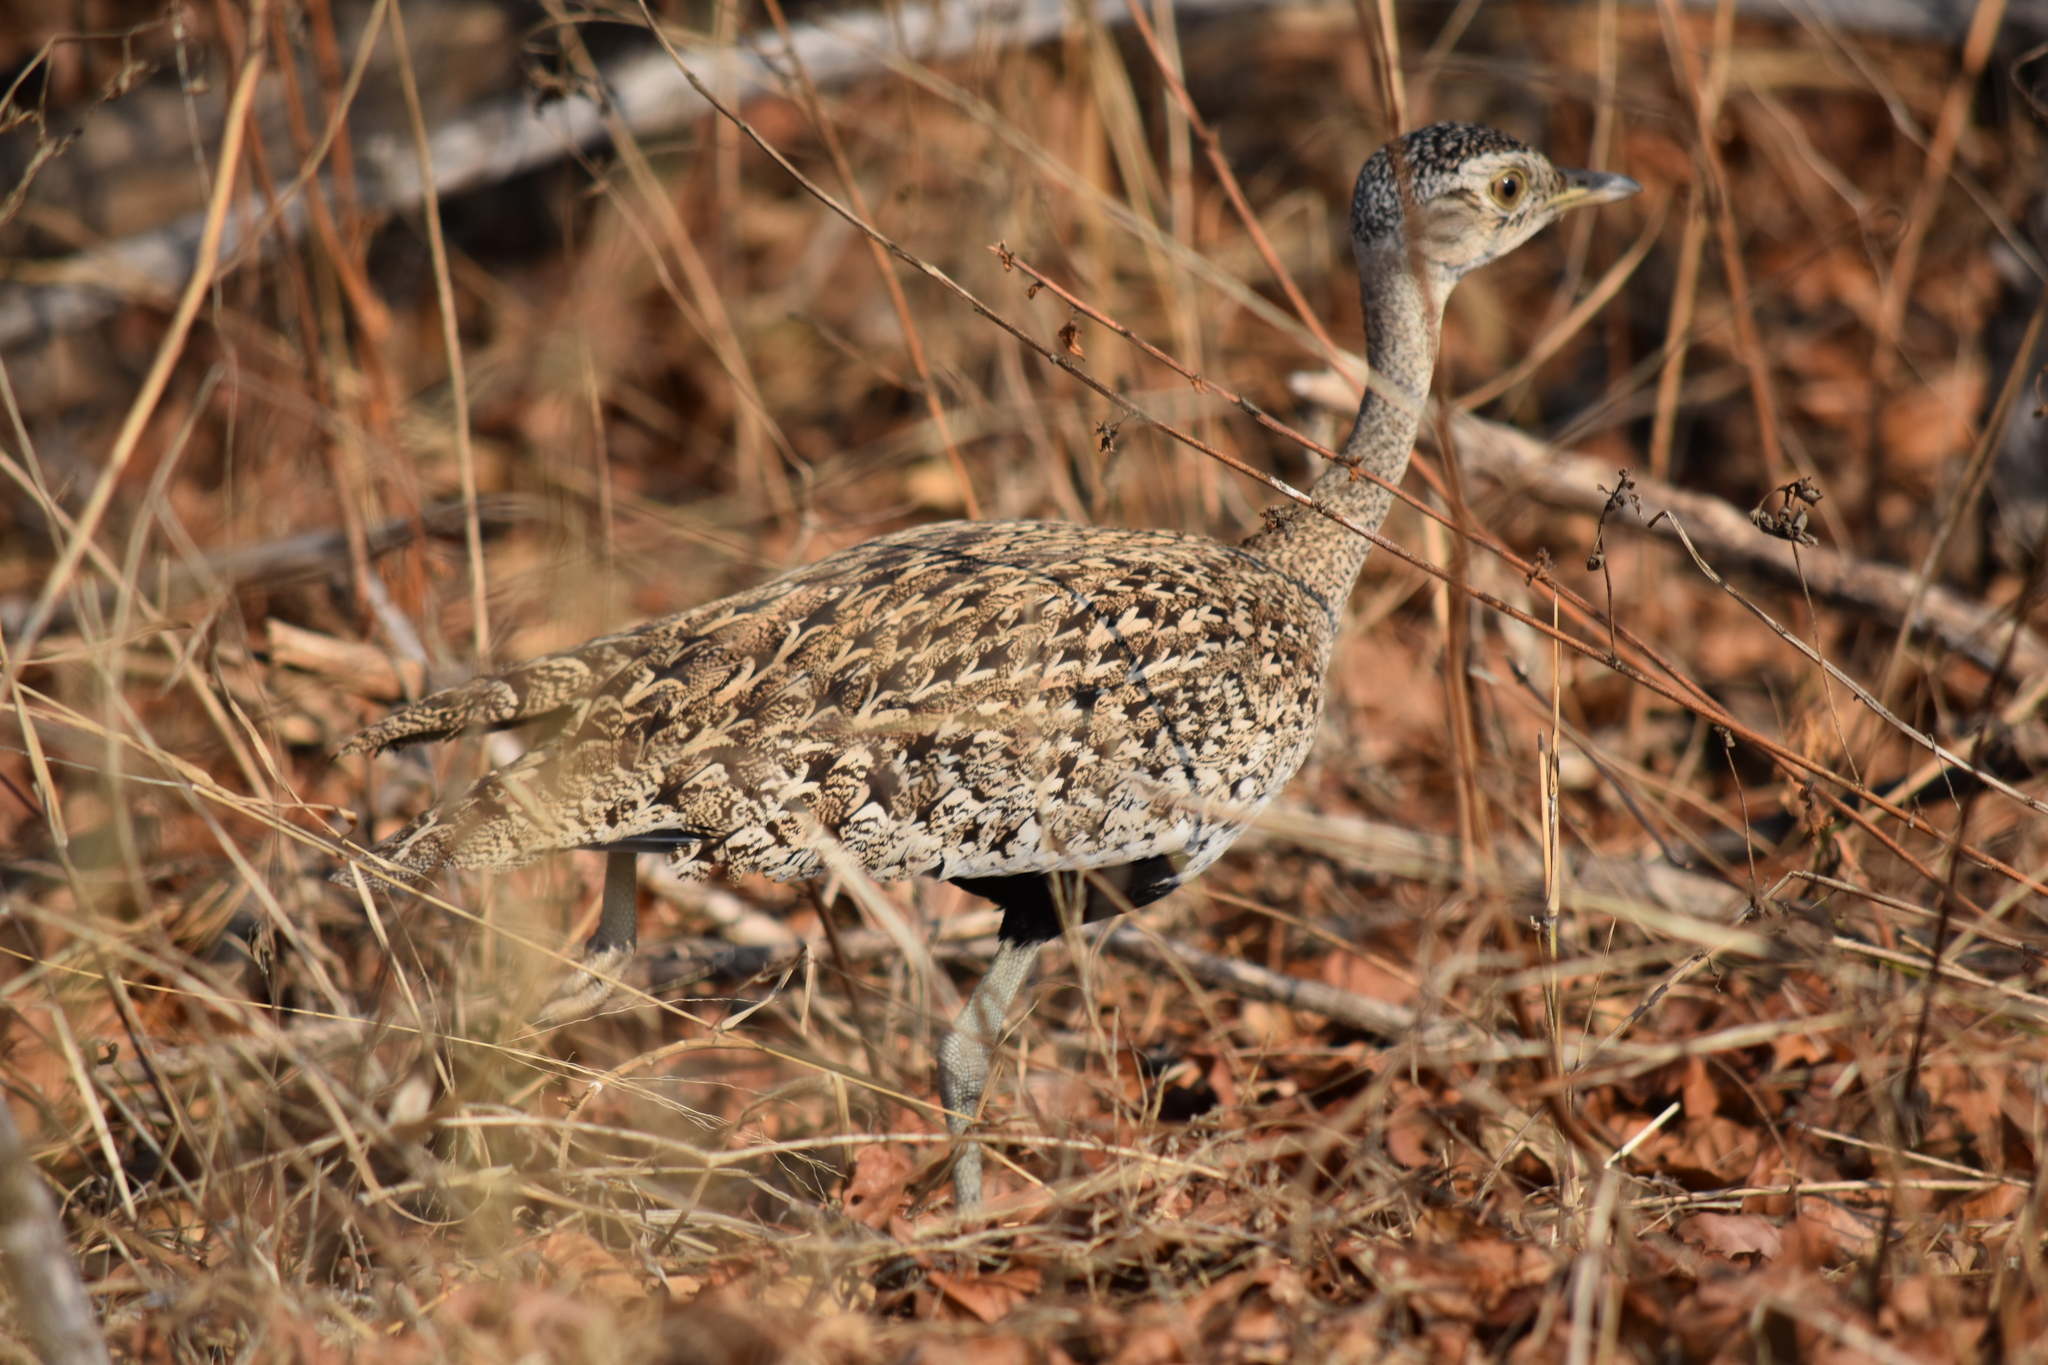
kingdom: Animalia
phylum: Chordata
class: Aves
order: Otidiformes
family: Otididae
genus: Lophotis
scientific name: Lophotis ruficrista
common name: Red-crested korhaan
